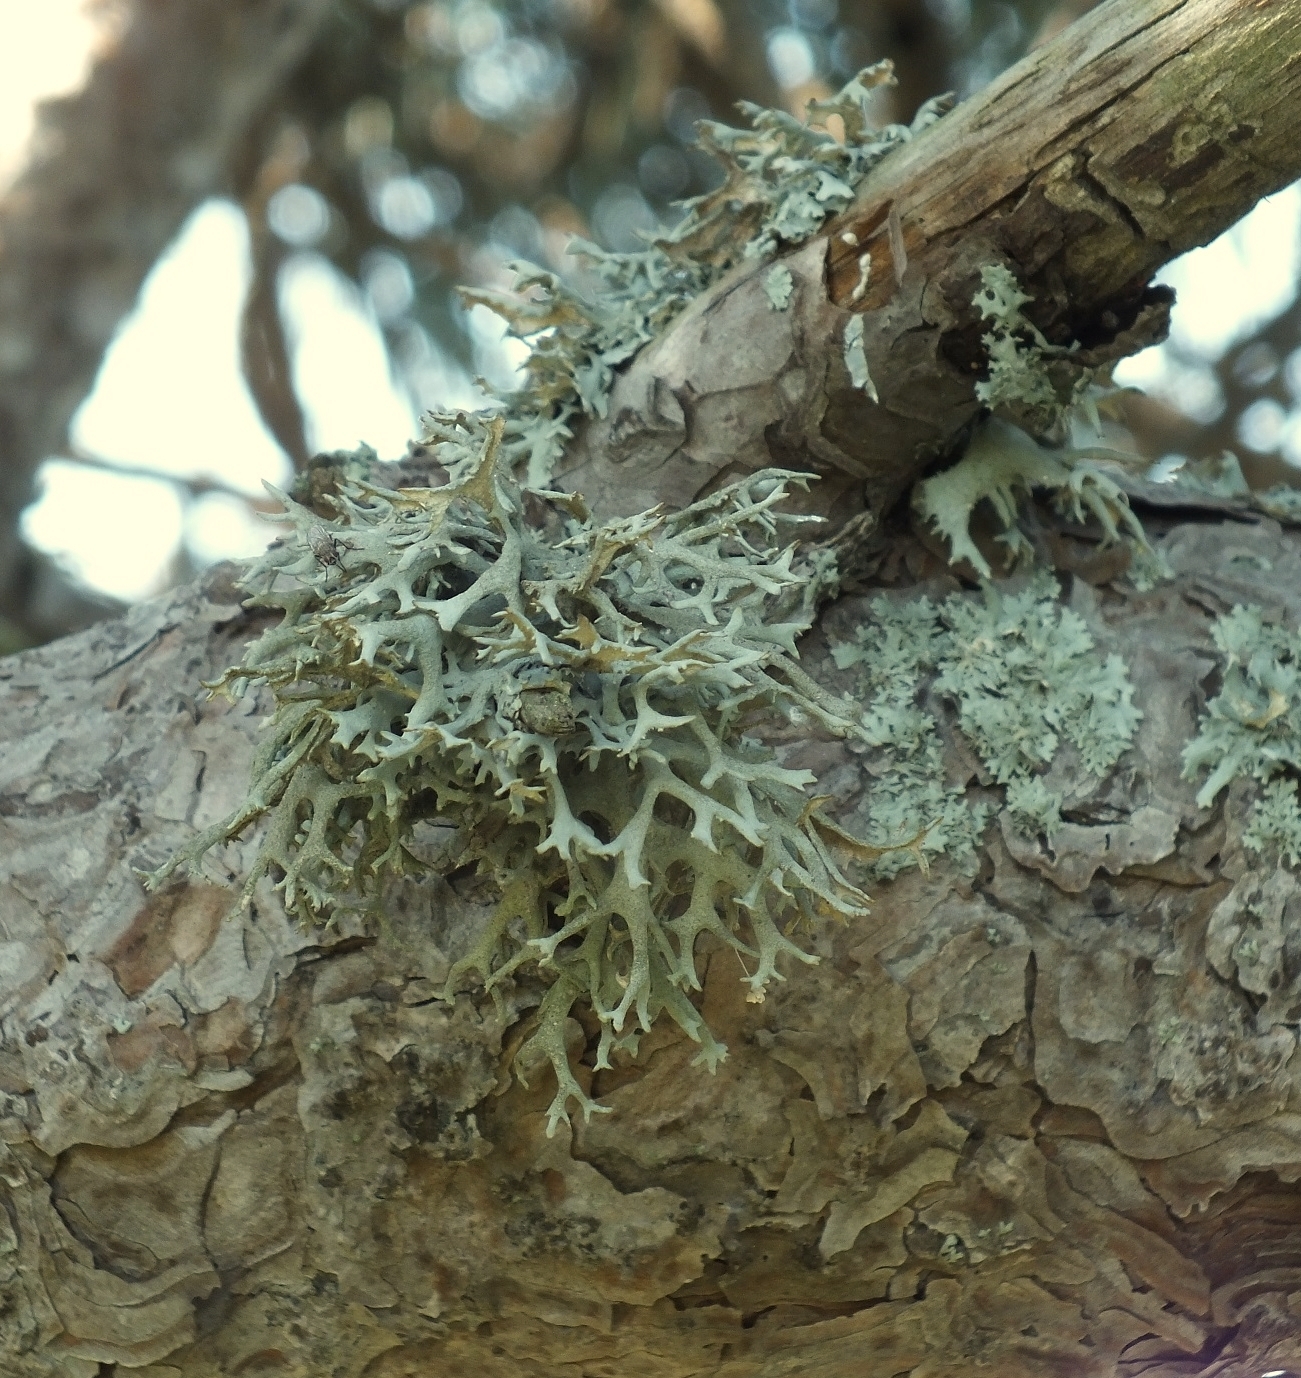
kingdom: Fungi
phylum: Ascomycota
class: Lecanoromycetes
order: Lecanorales
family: Parmeliaceae
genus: Evernia
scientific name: Evernia prunastri
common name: Oak moss
